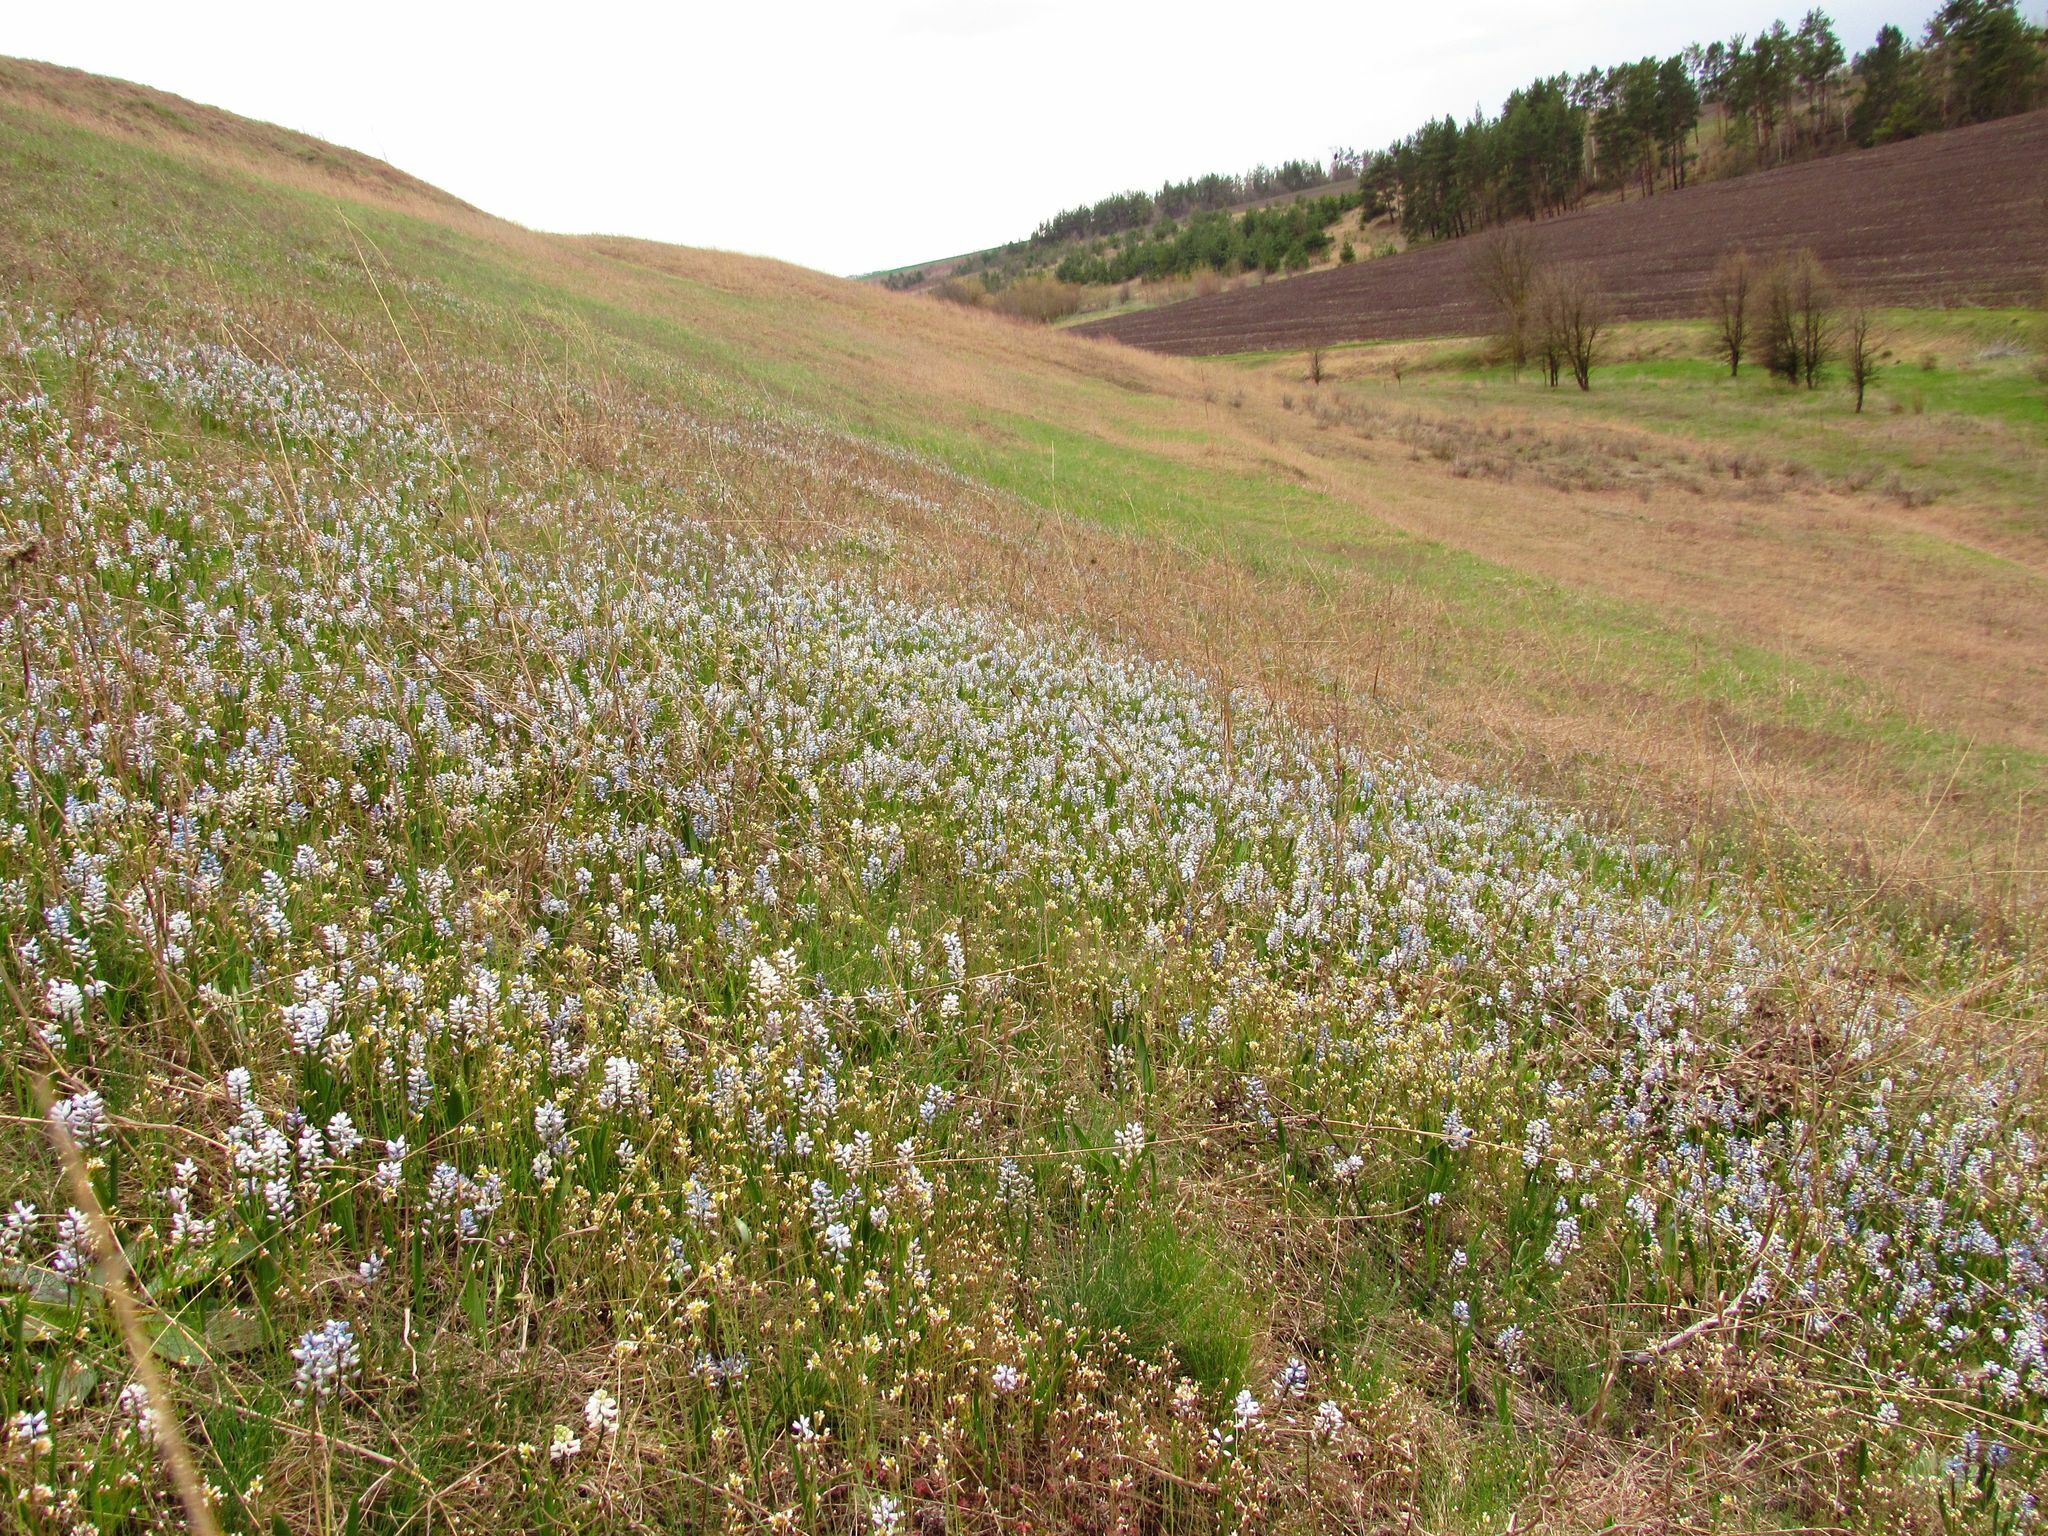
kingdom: Plantae
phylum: Tracheophyta
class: Liliopsida
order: Asparagales
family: Asparagaceae
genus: Hyacinthella
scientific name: Hyacinthella leucophaea
